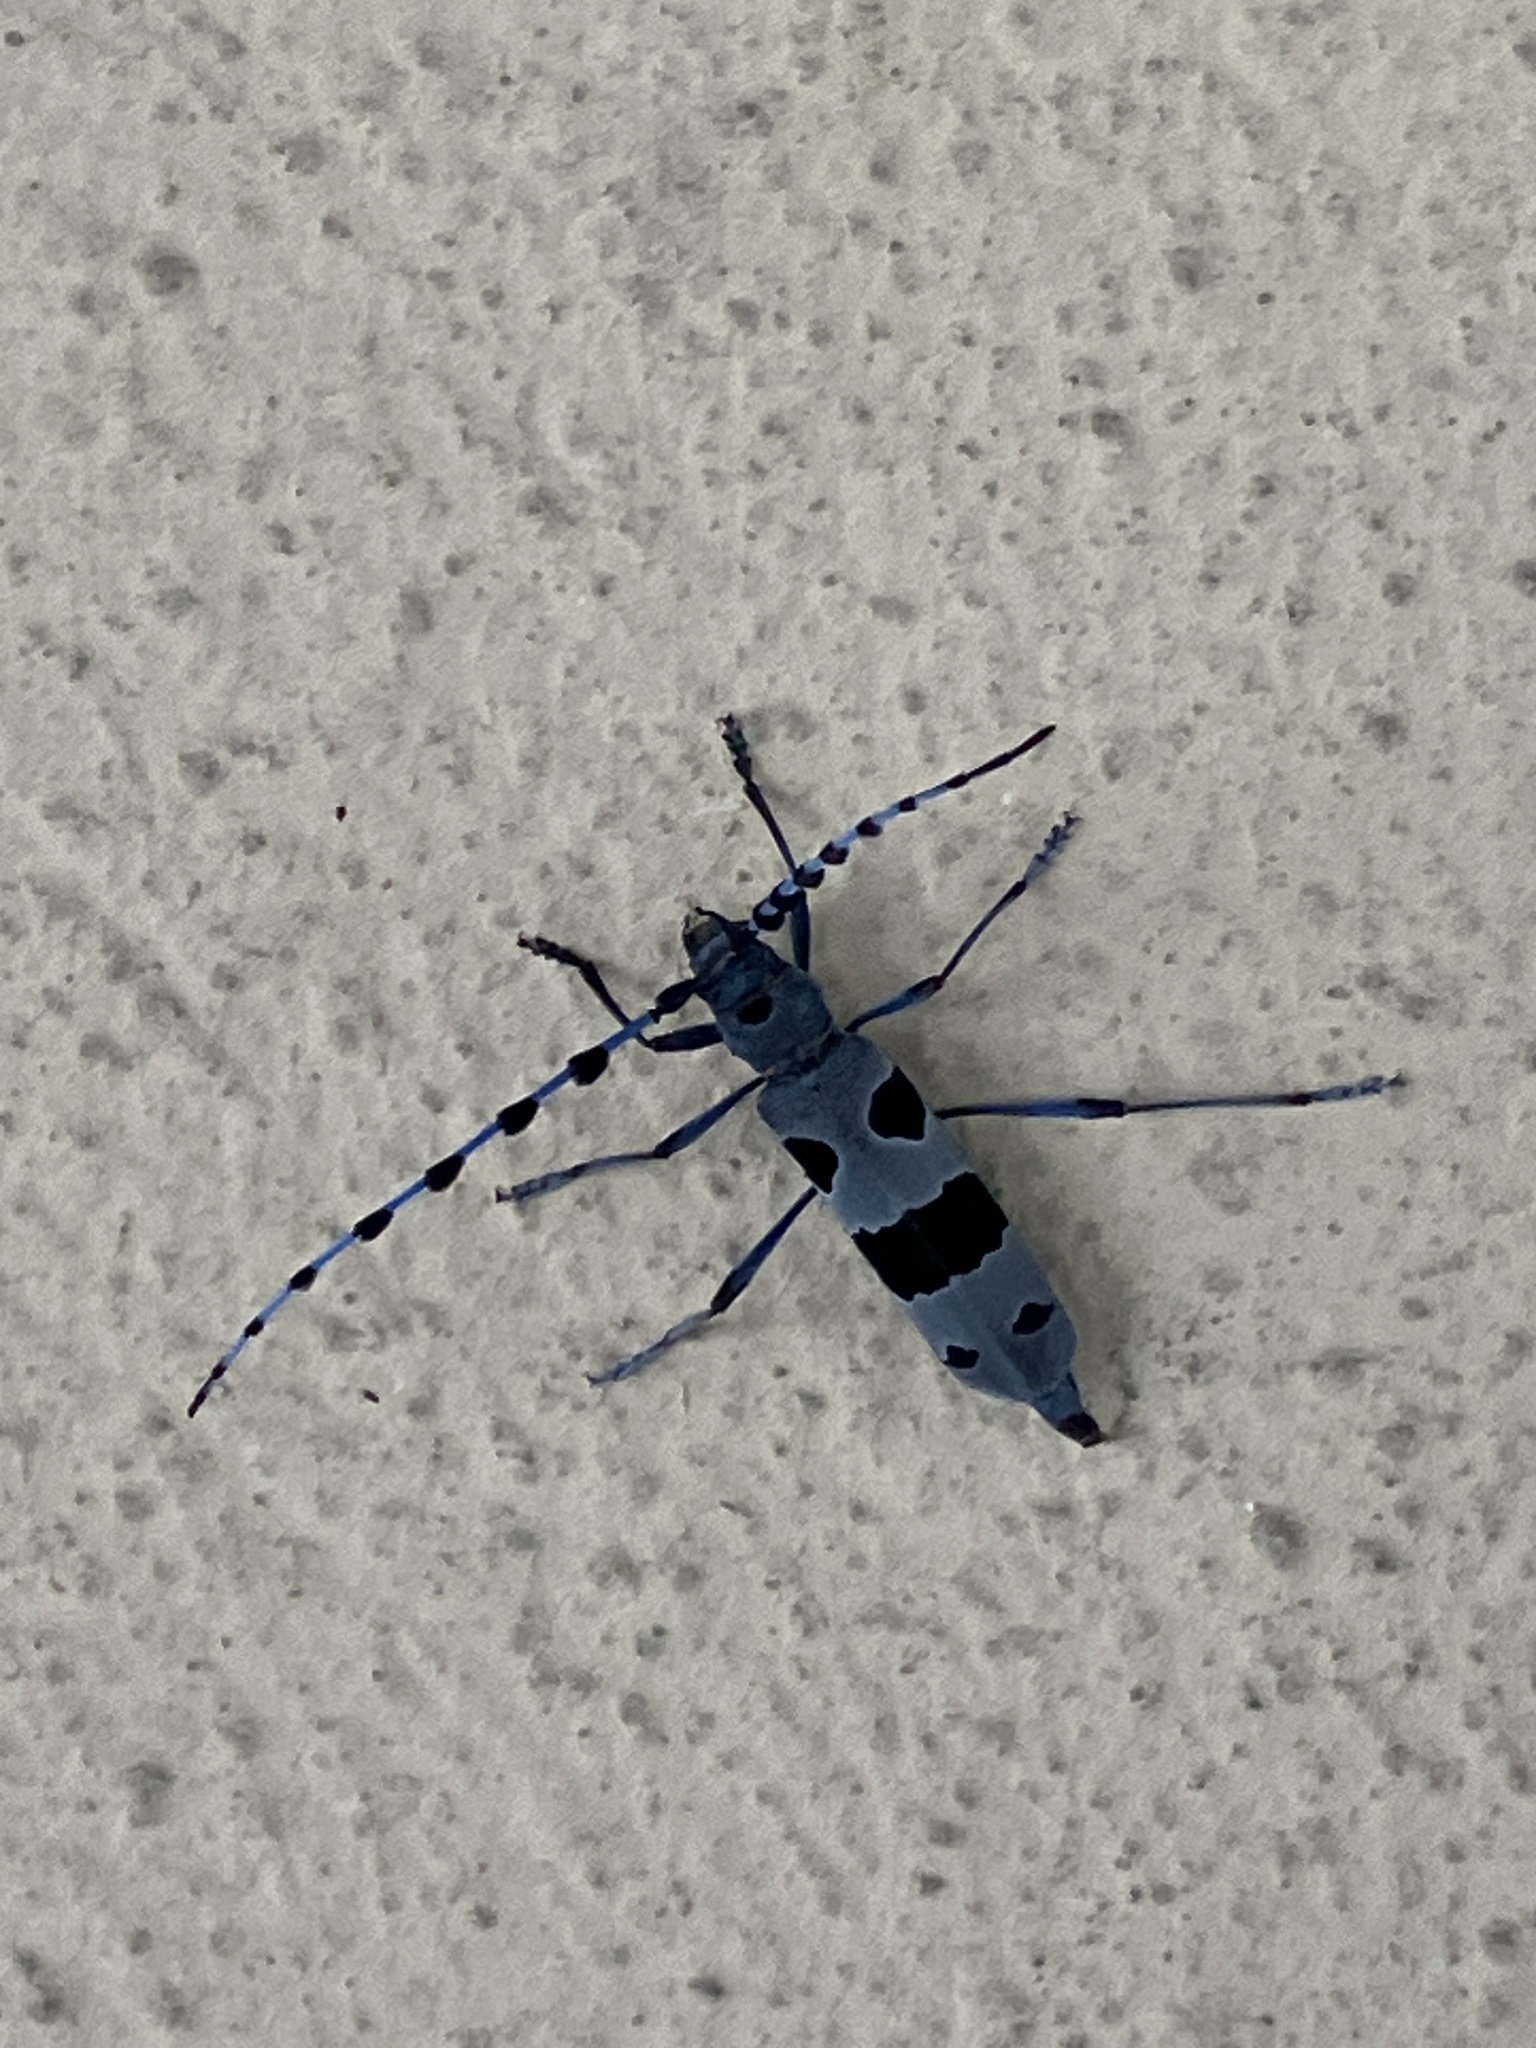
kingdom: Animalia
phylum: Arthropoda
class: Insecta
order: Coleoptera
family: Cerambycidae
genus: Rosalia
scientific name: Rosalia alpina
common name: Rosalia longicorn
